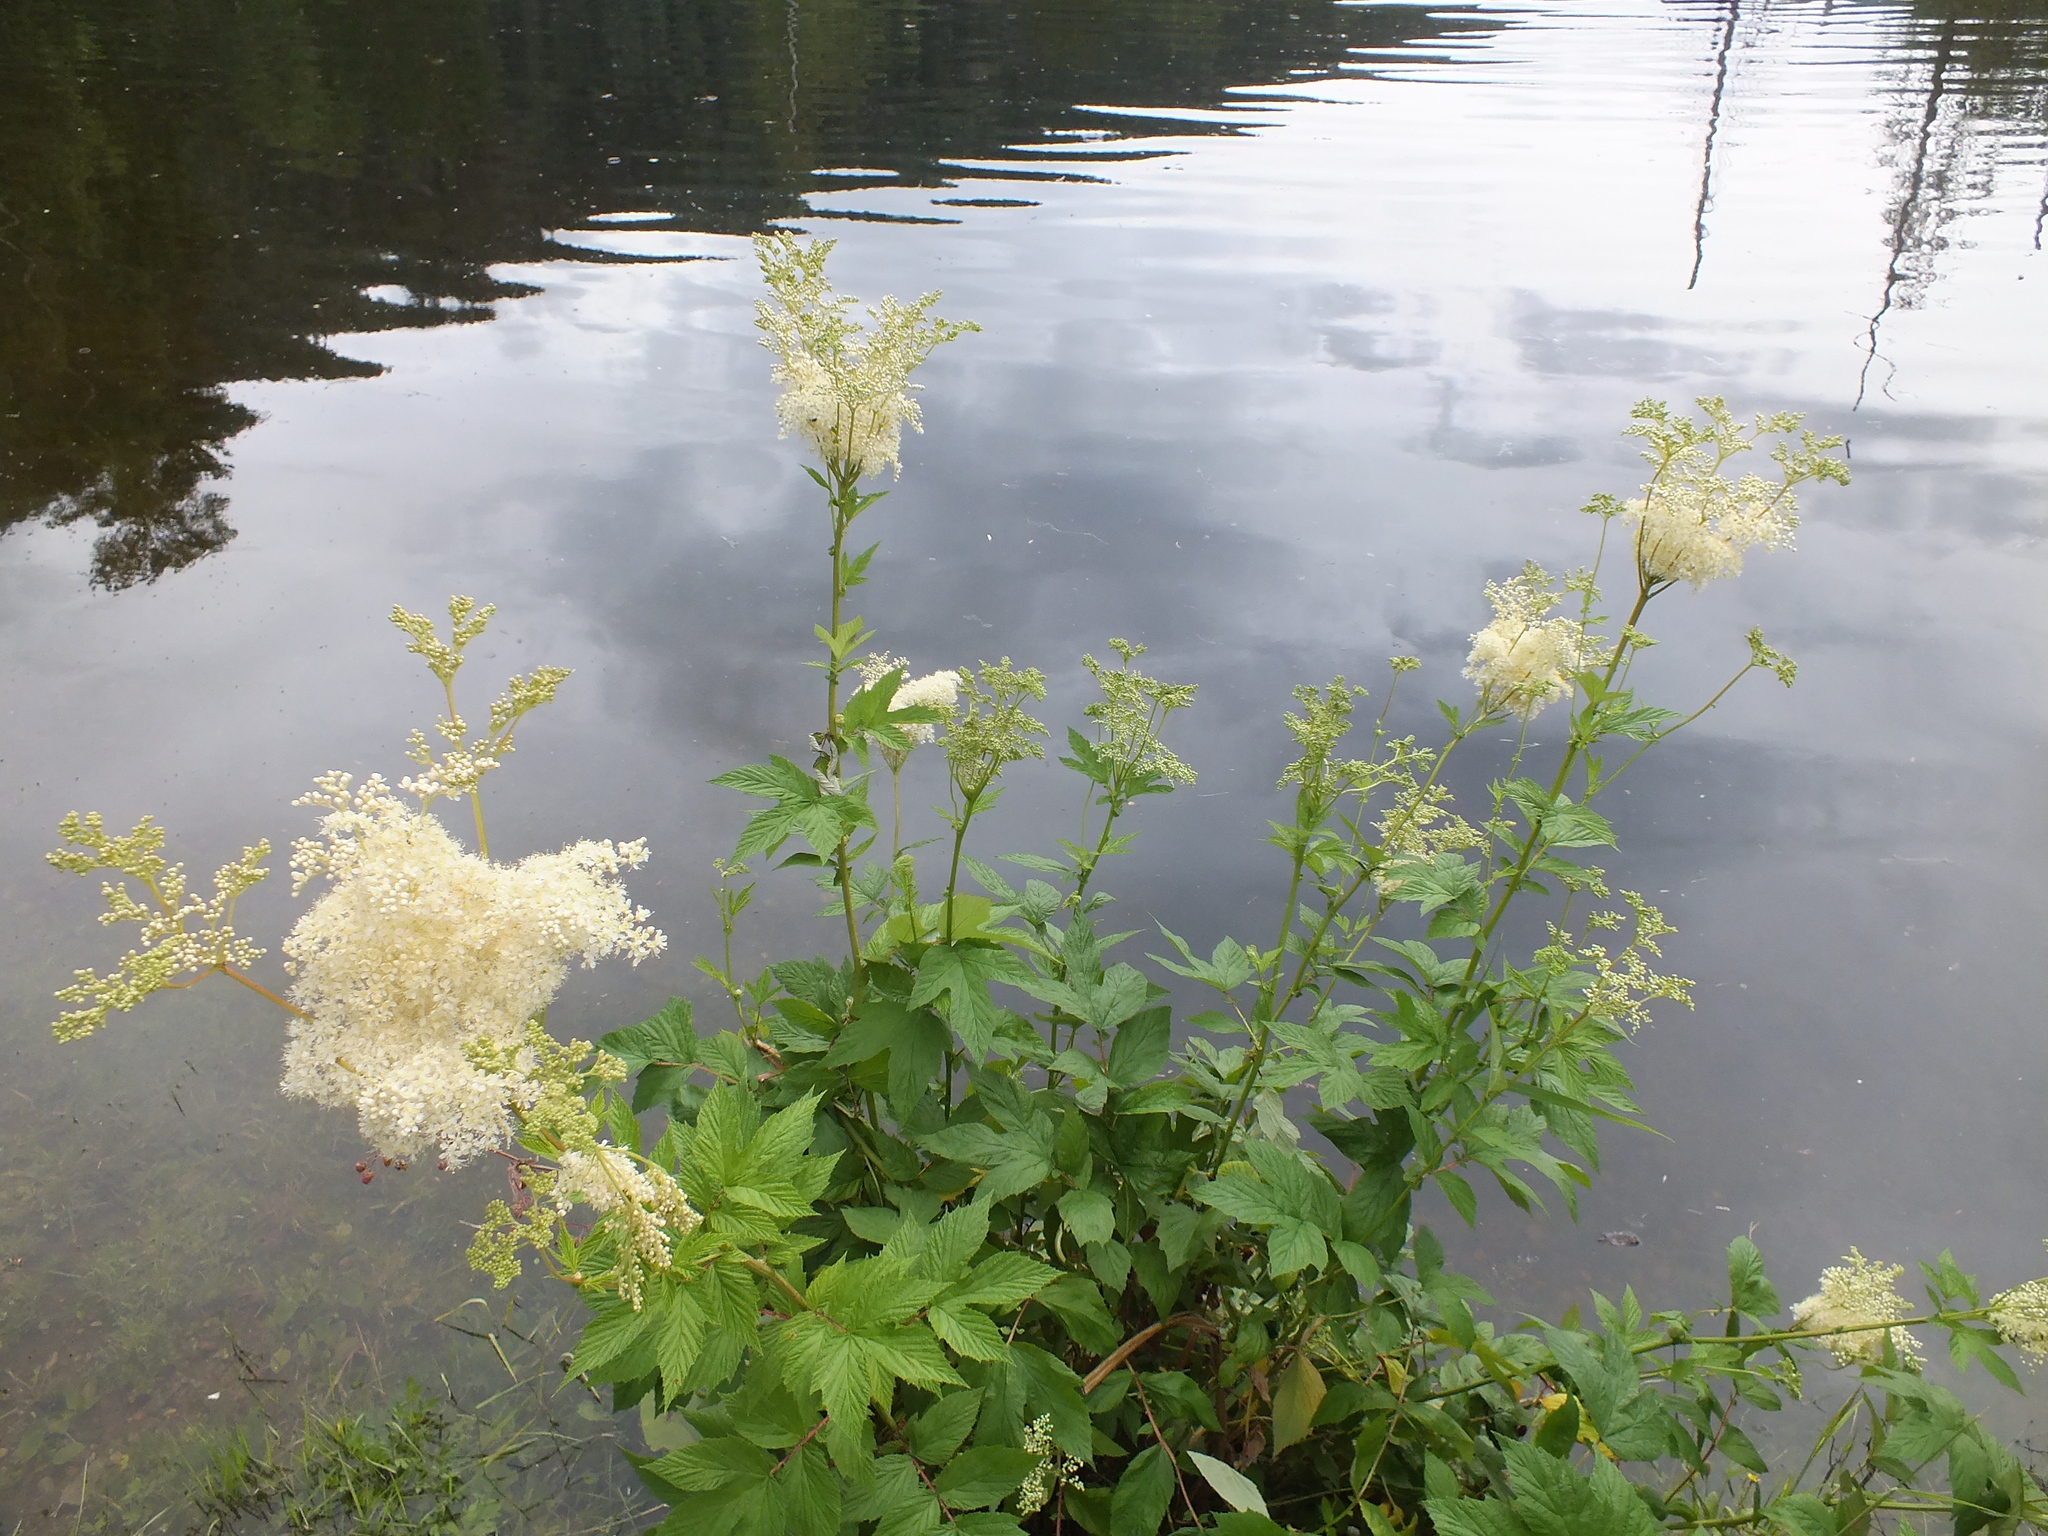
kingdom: Plantae
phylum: Tracheophyta
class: Magnoliopsida
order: Rosales
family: Rosaceae
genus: Filipendula
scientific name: Filipendula ulmaria
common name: Meadowsweet
